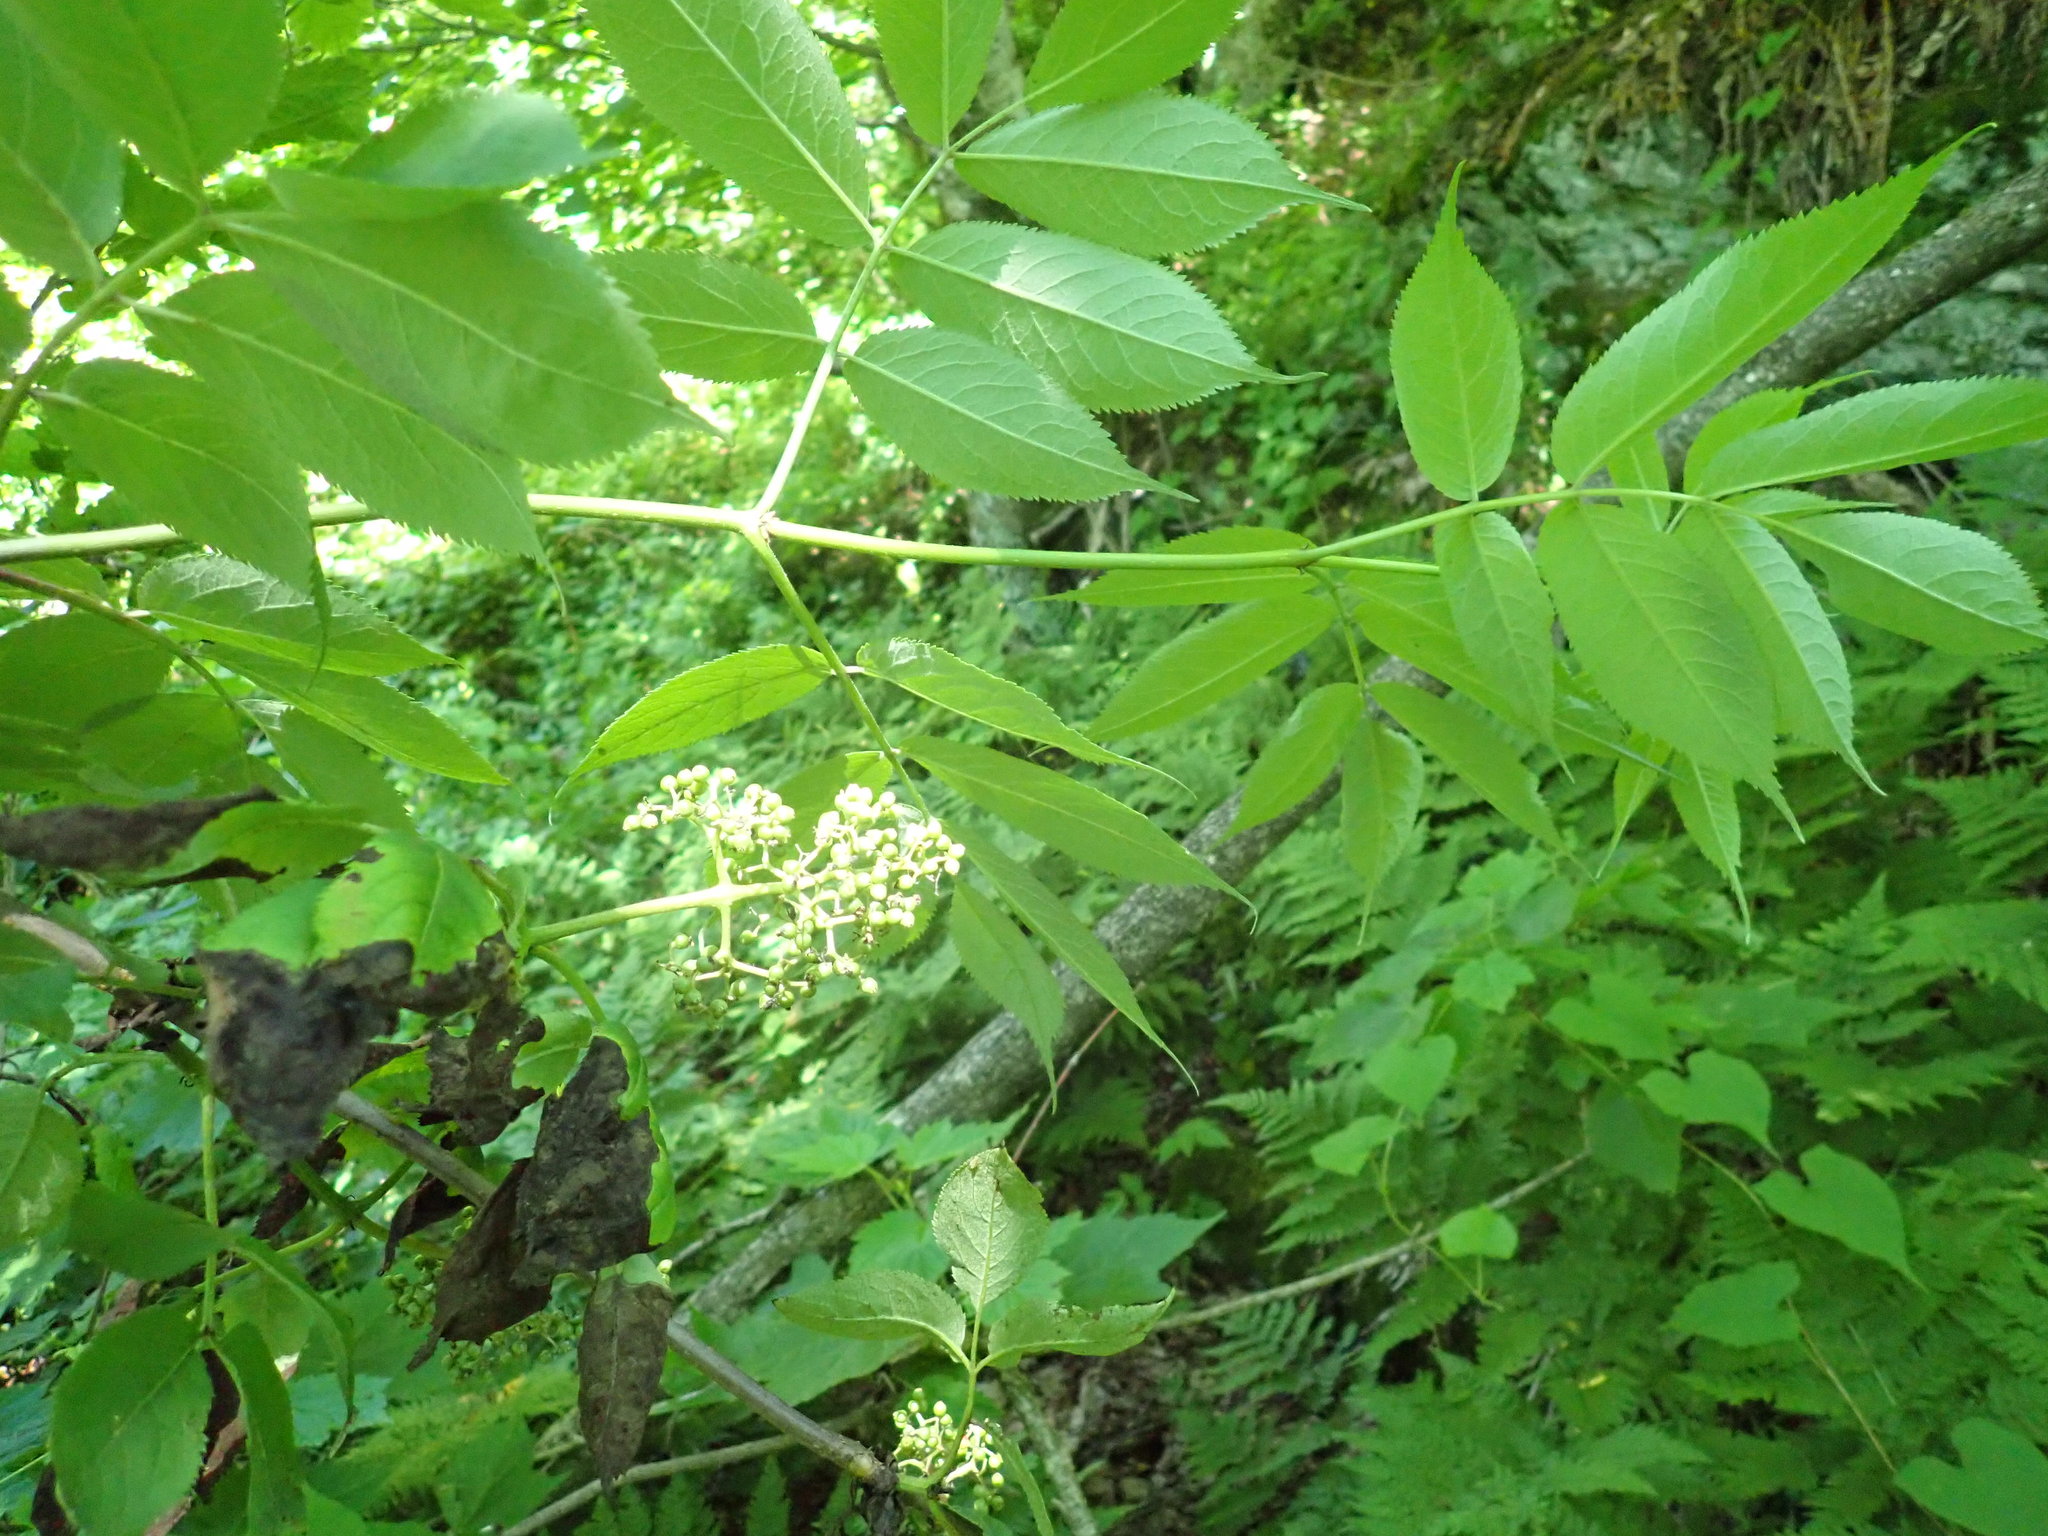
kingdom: Plantae
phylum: Tracheophyta
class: Magnoliopsida
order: Dipsacales
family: Viburnaceae
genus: Sambucus
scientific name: Sambucus racemosa
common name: Red-berried elder
